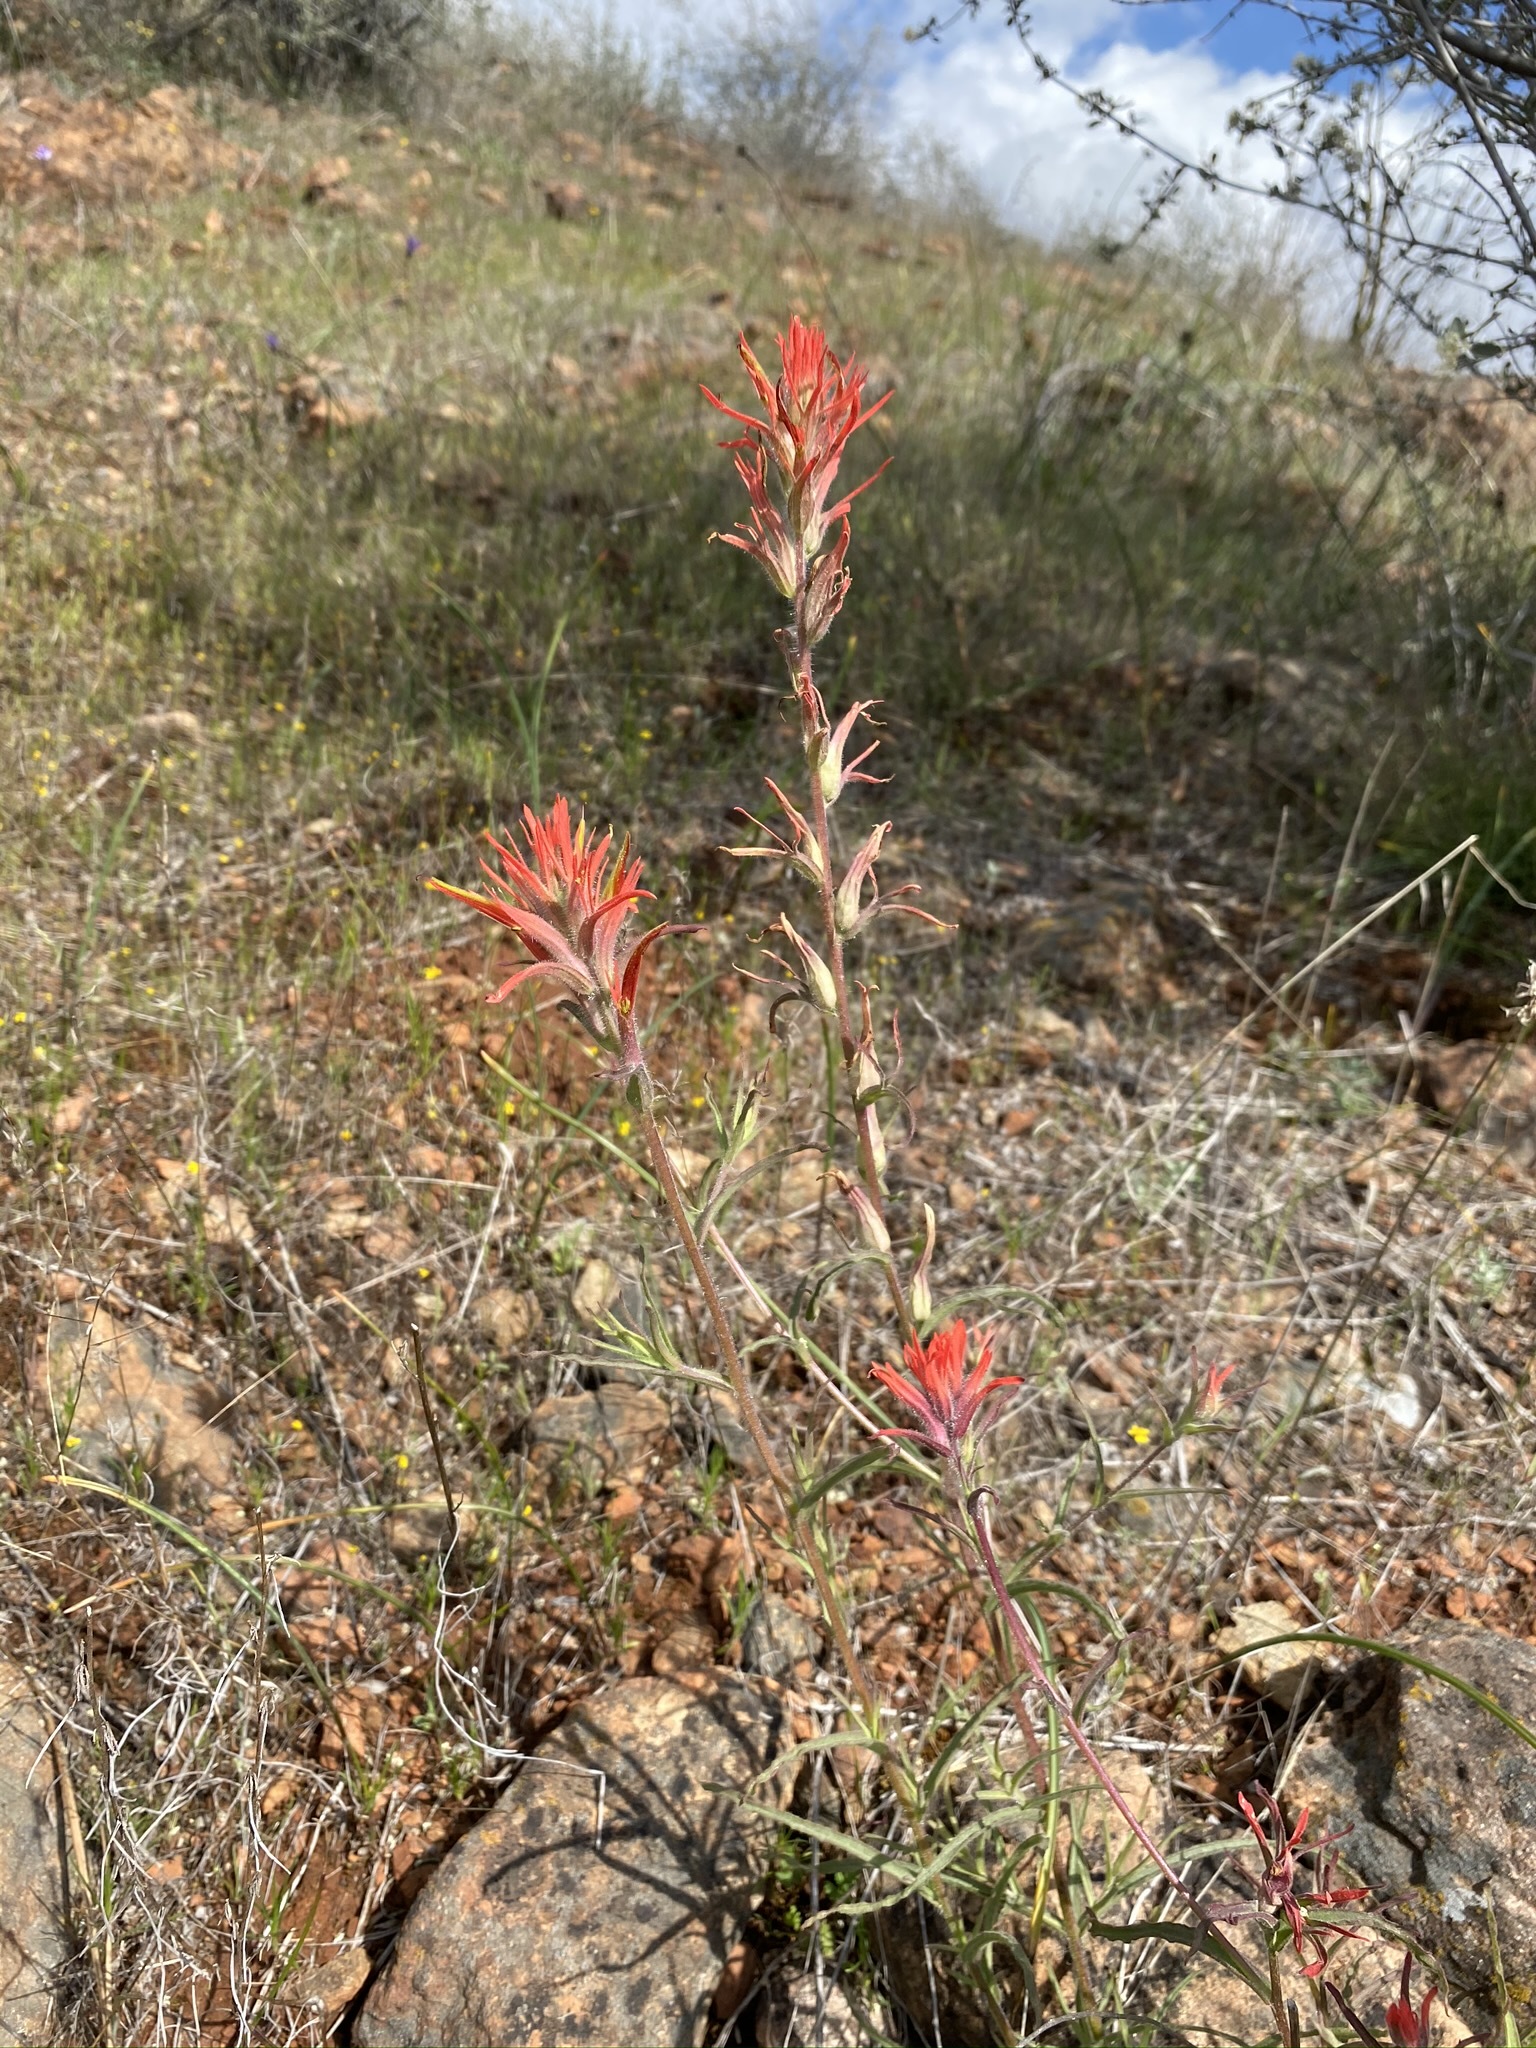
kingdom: Plantae
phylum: Tracheophyta
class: Magnoliopsida
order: Lamiales
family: Orobanchaceae
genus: Castilleja
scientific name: Castilleja subinclusa
